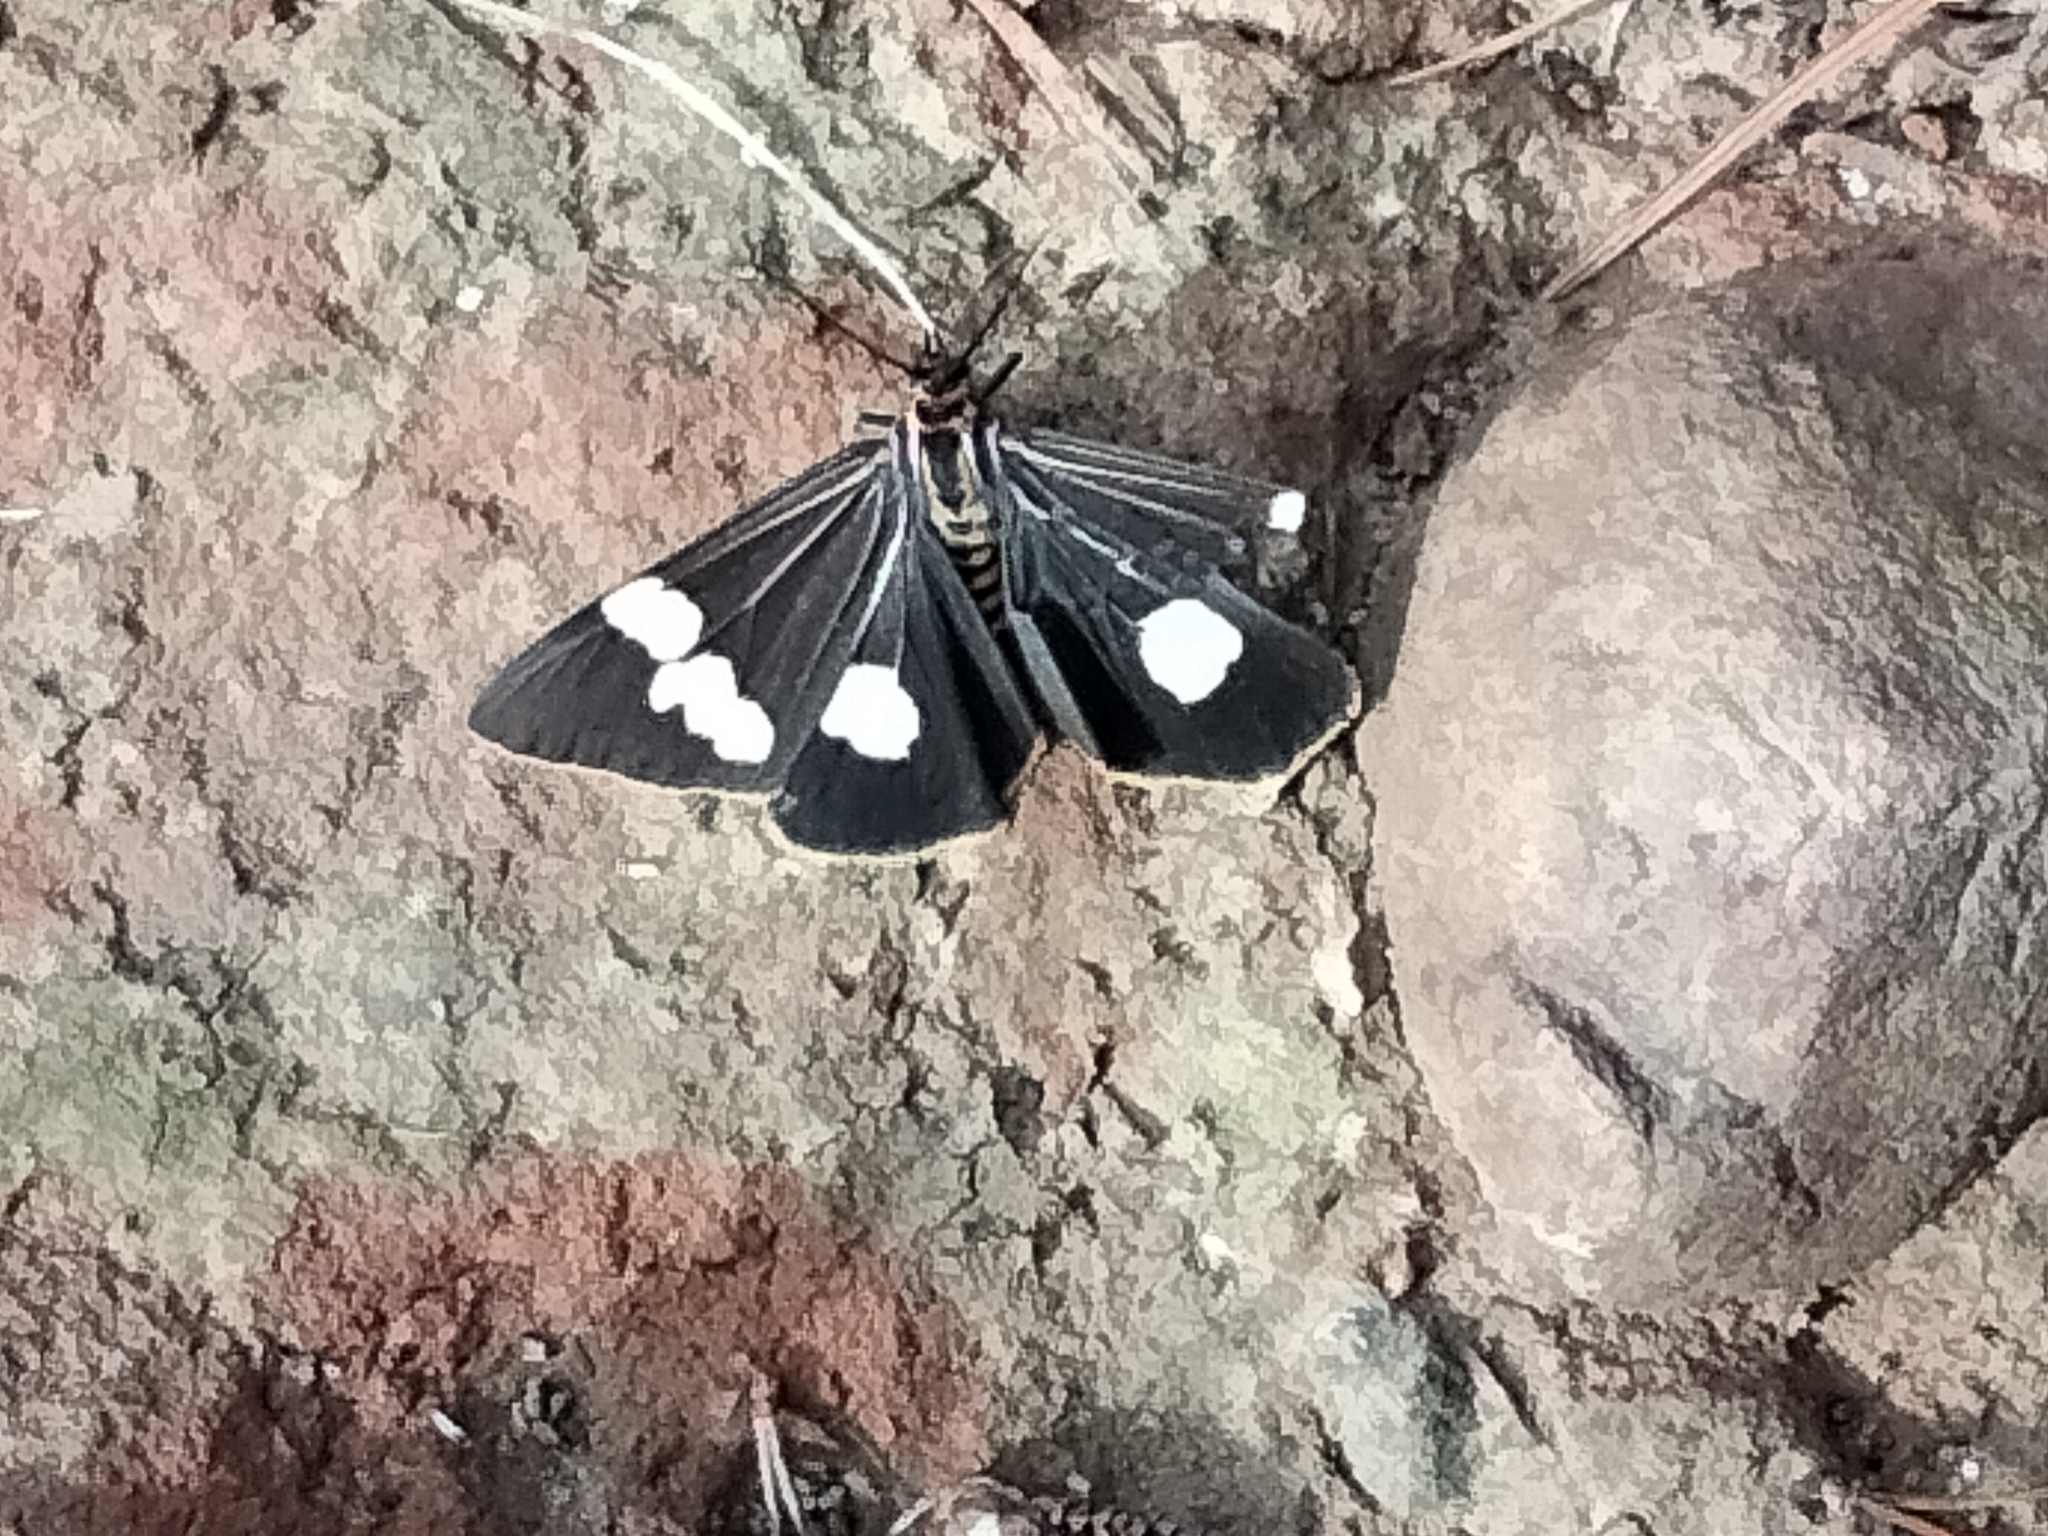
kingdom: Animalia
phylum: Arthropoda
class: Insecta
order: Lepidoptera
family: Erebidae
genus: Nyctemera
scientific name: Nyctemera amicus
